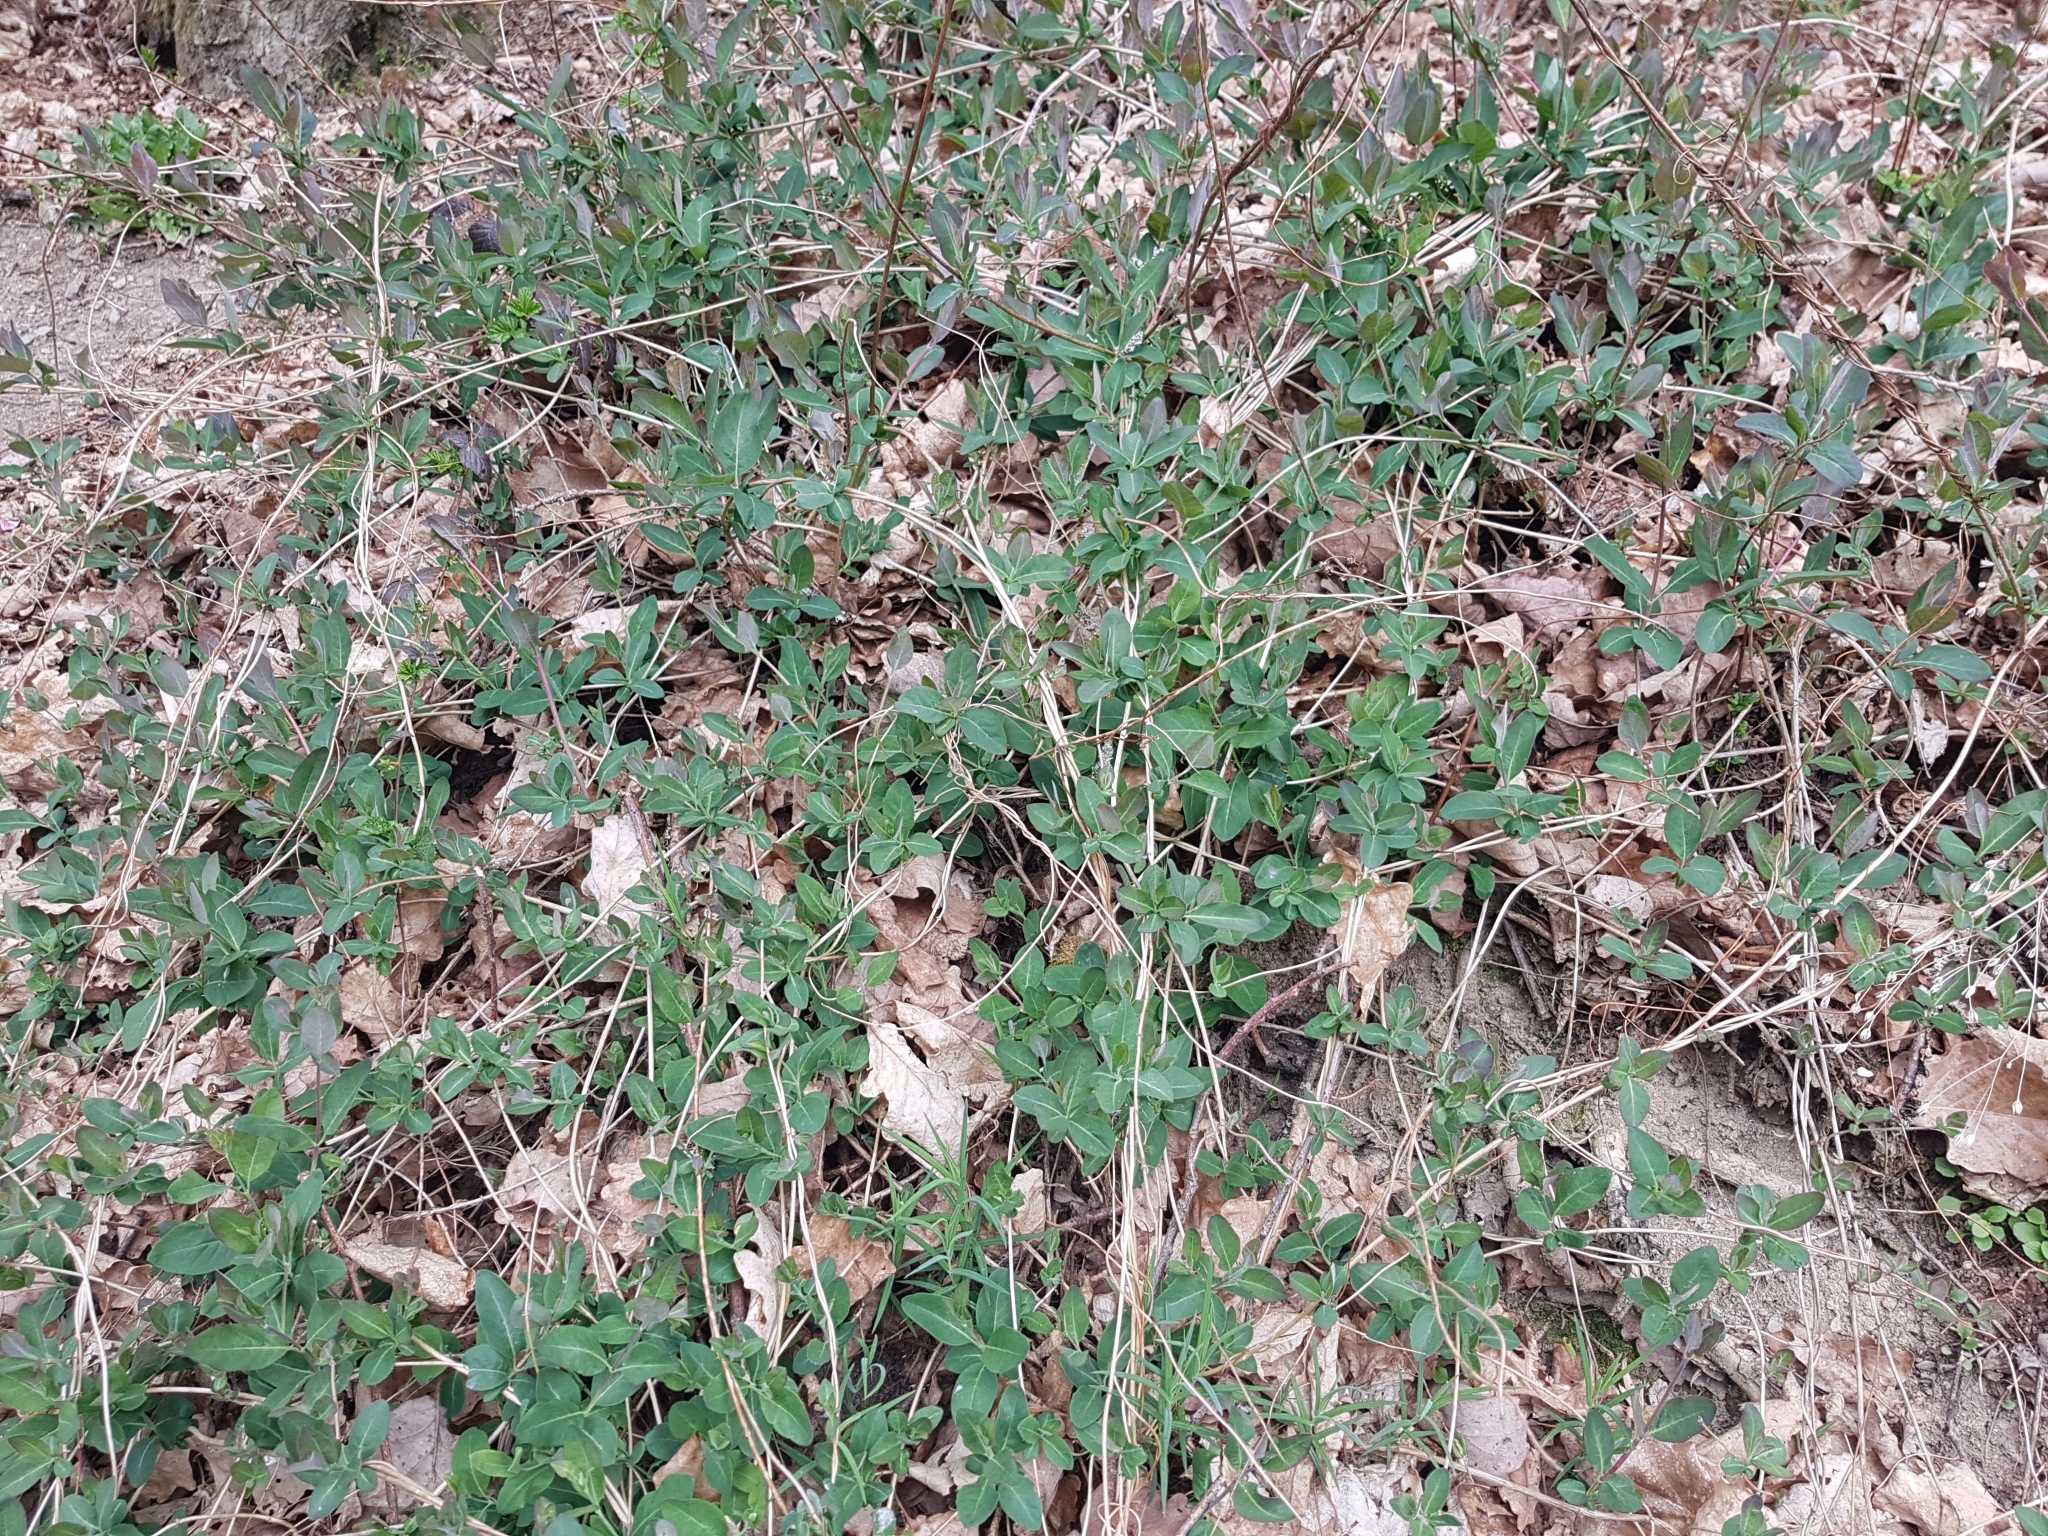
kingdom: Plantae
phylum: Tracheophyta
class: Magnoliopsida
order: Dipsacales
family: Caprifoliaceae
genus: Lonicera
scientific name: Lonicera periclymenum
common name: European honeysuckle
